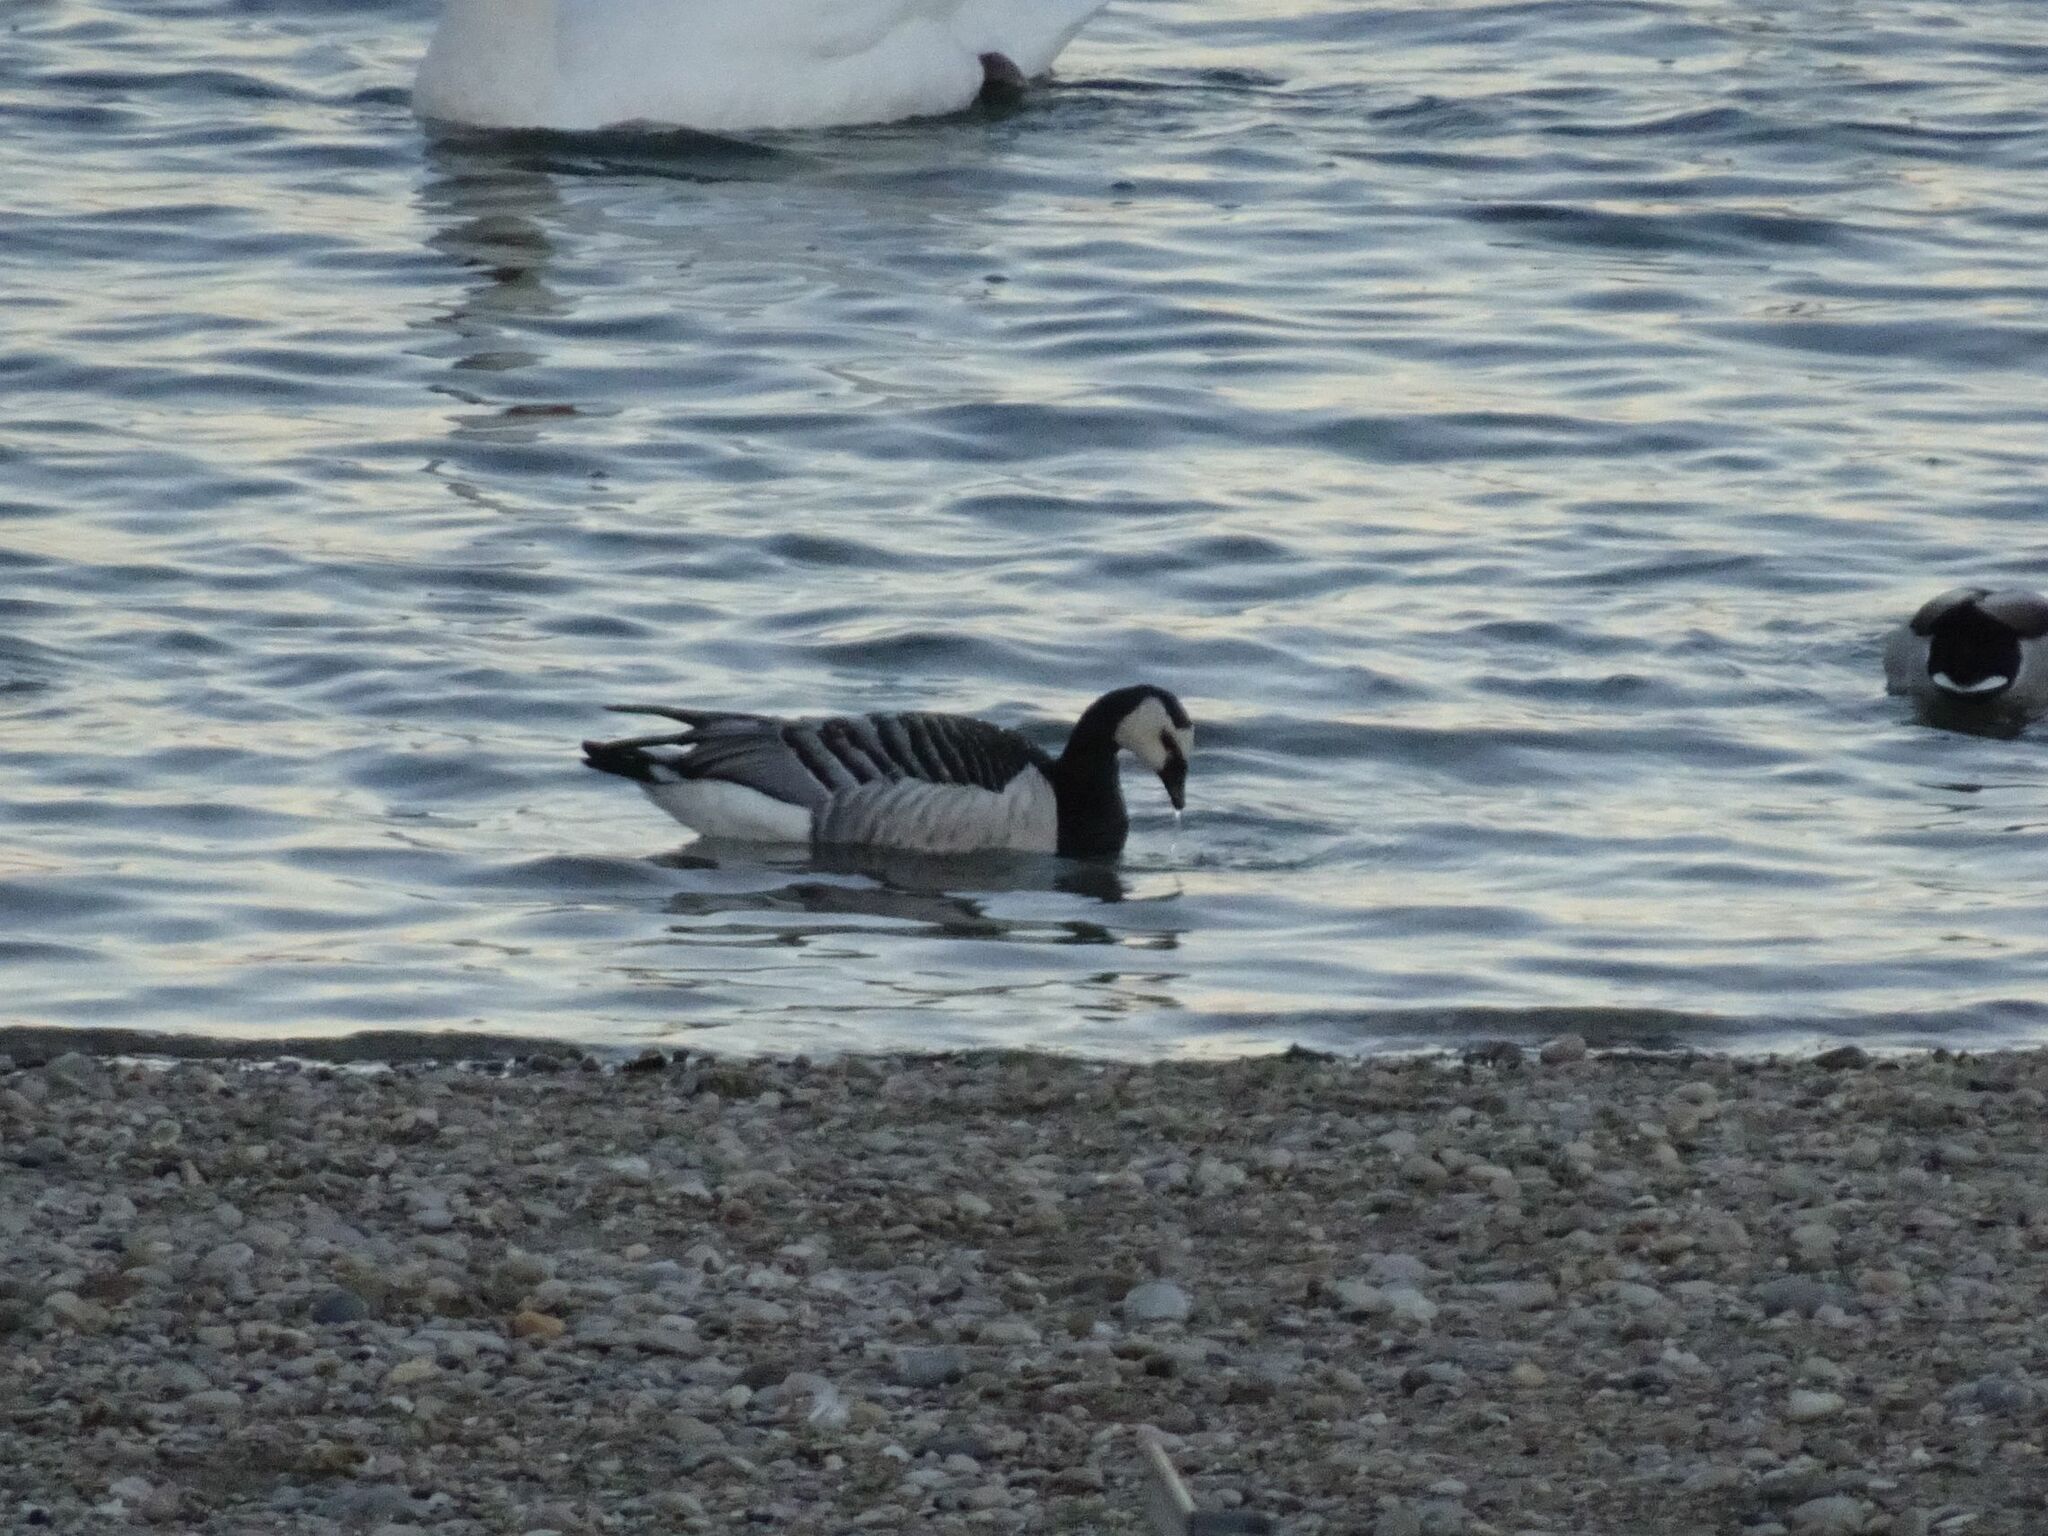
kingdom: Animalia
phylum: Chordata
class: Aves
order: Anseriformes
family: Anatidae
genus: Branta
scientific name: Branta leucopsis
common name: Barnacle goose
